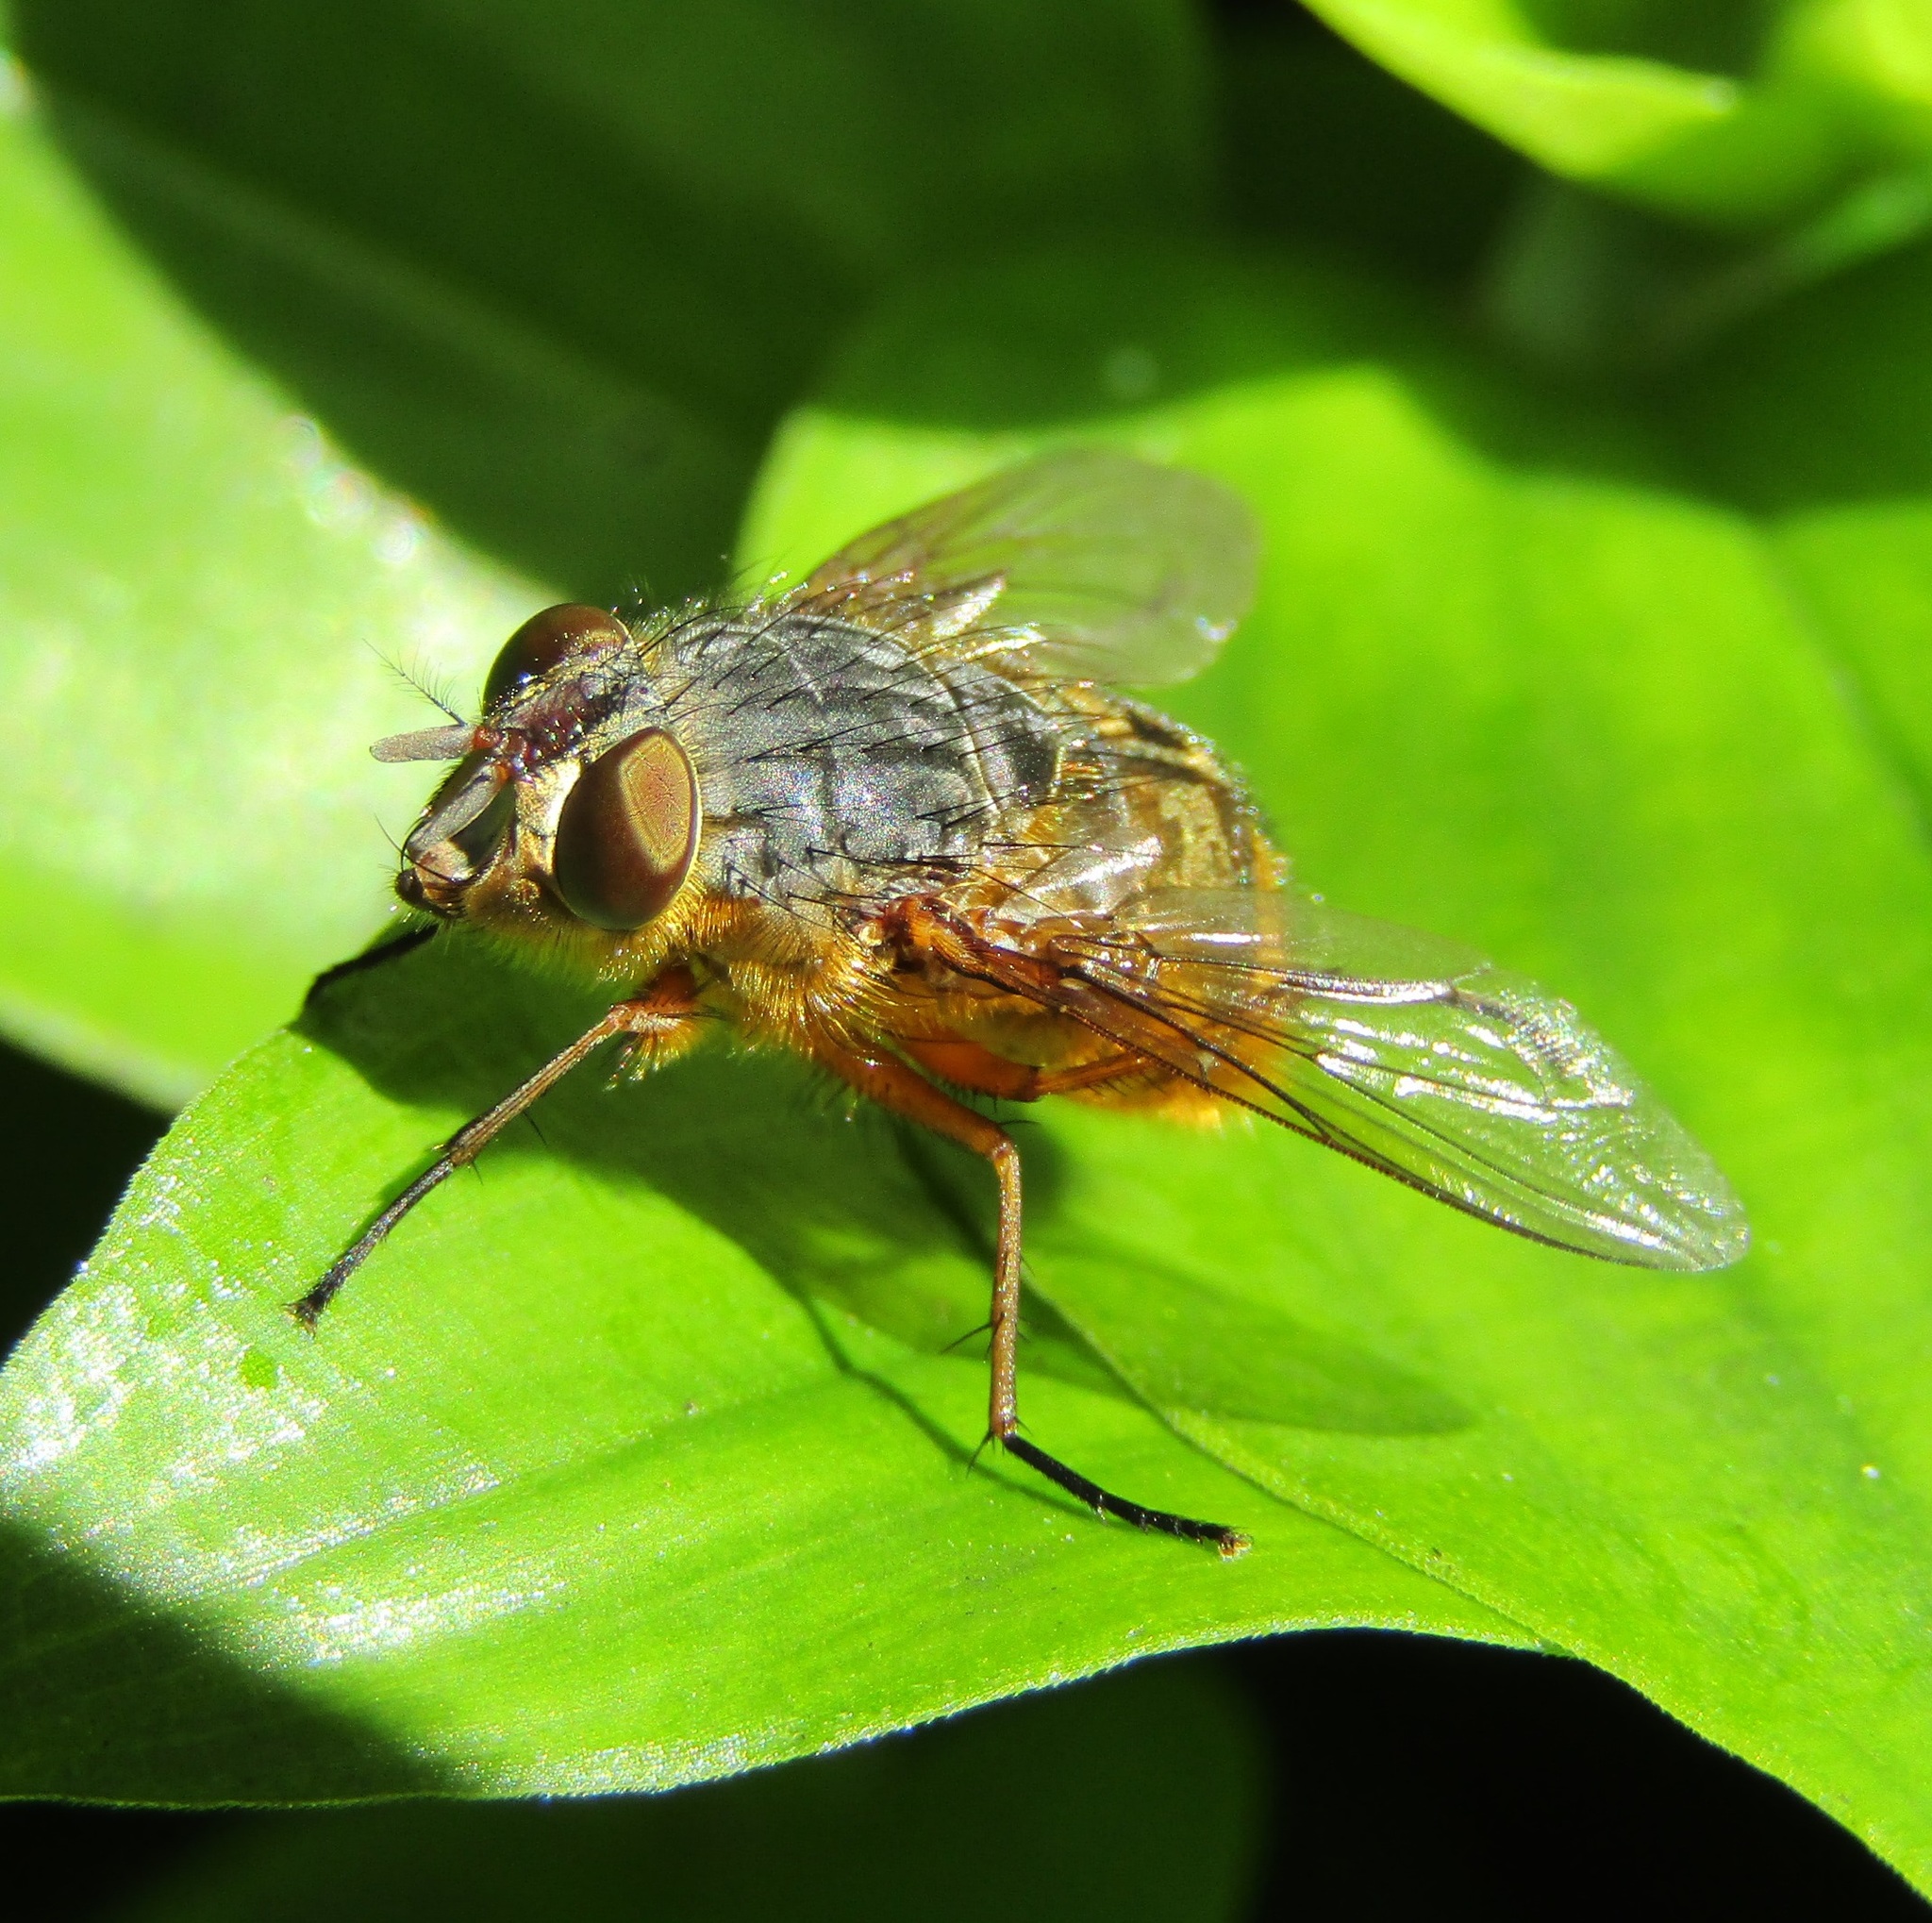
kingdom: Animalia
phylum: Arthropoda
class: Insecta
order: Diptera
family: Calliphoridae
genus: Calliphora
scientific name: Calliphora hilli
